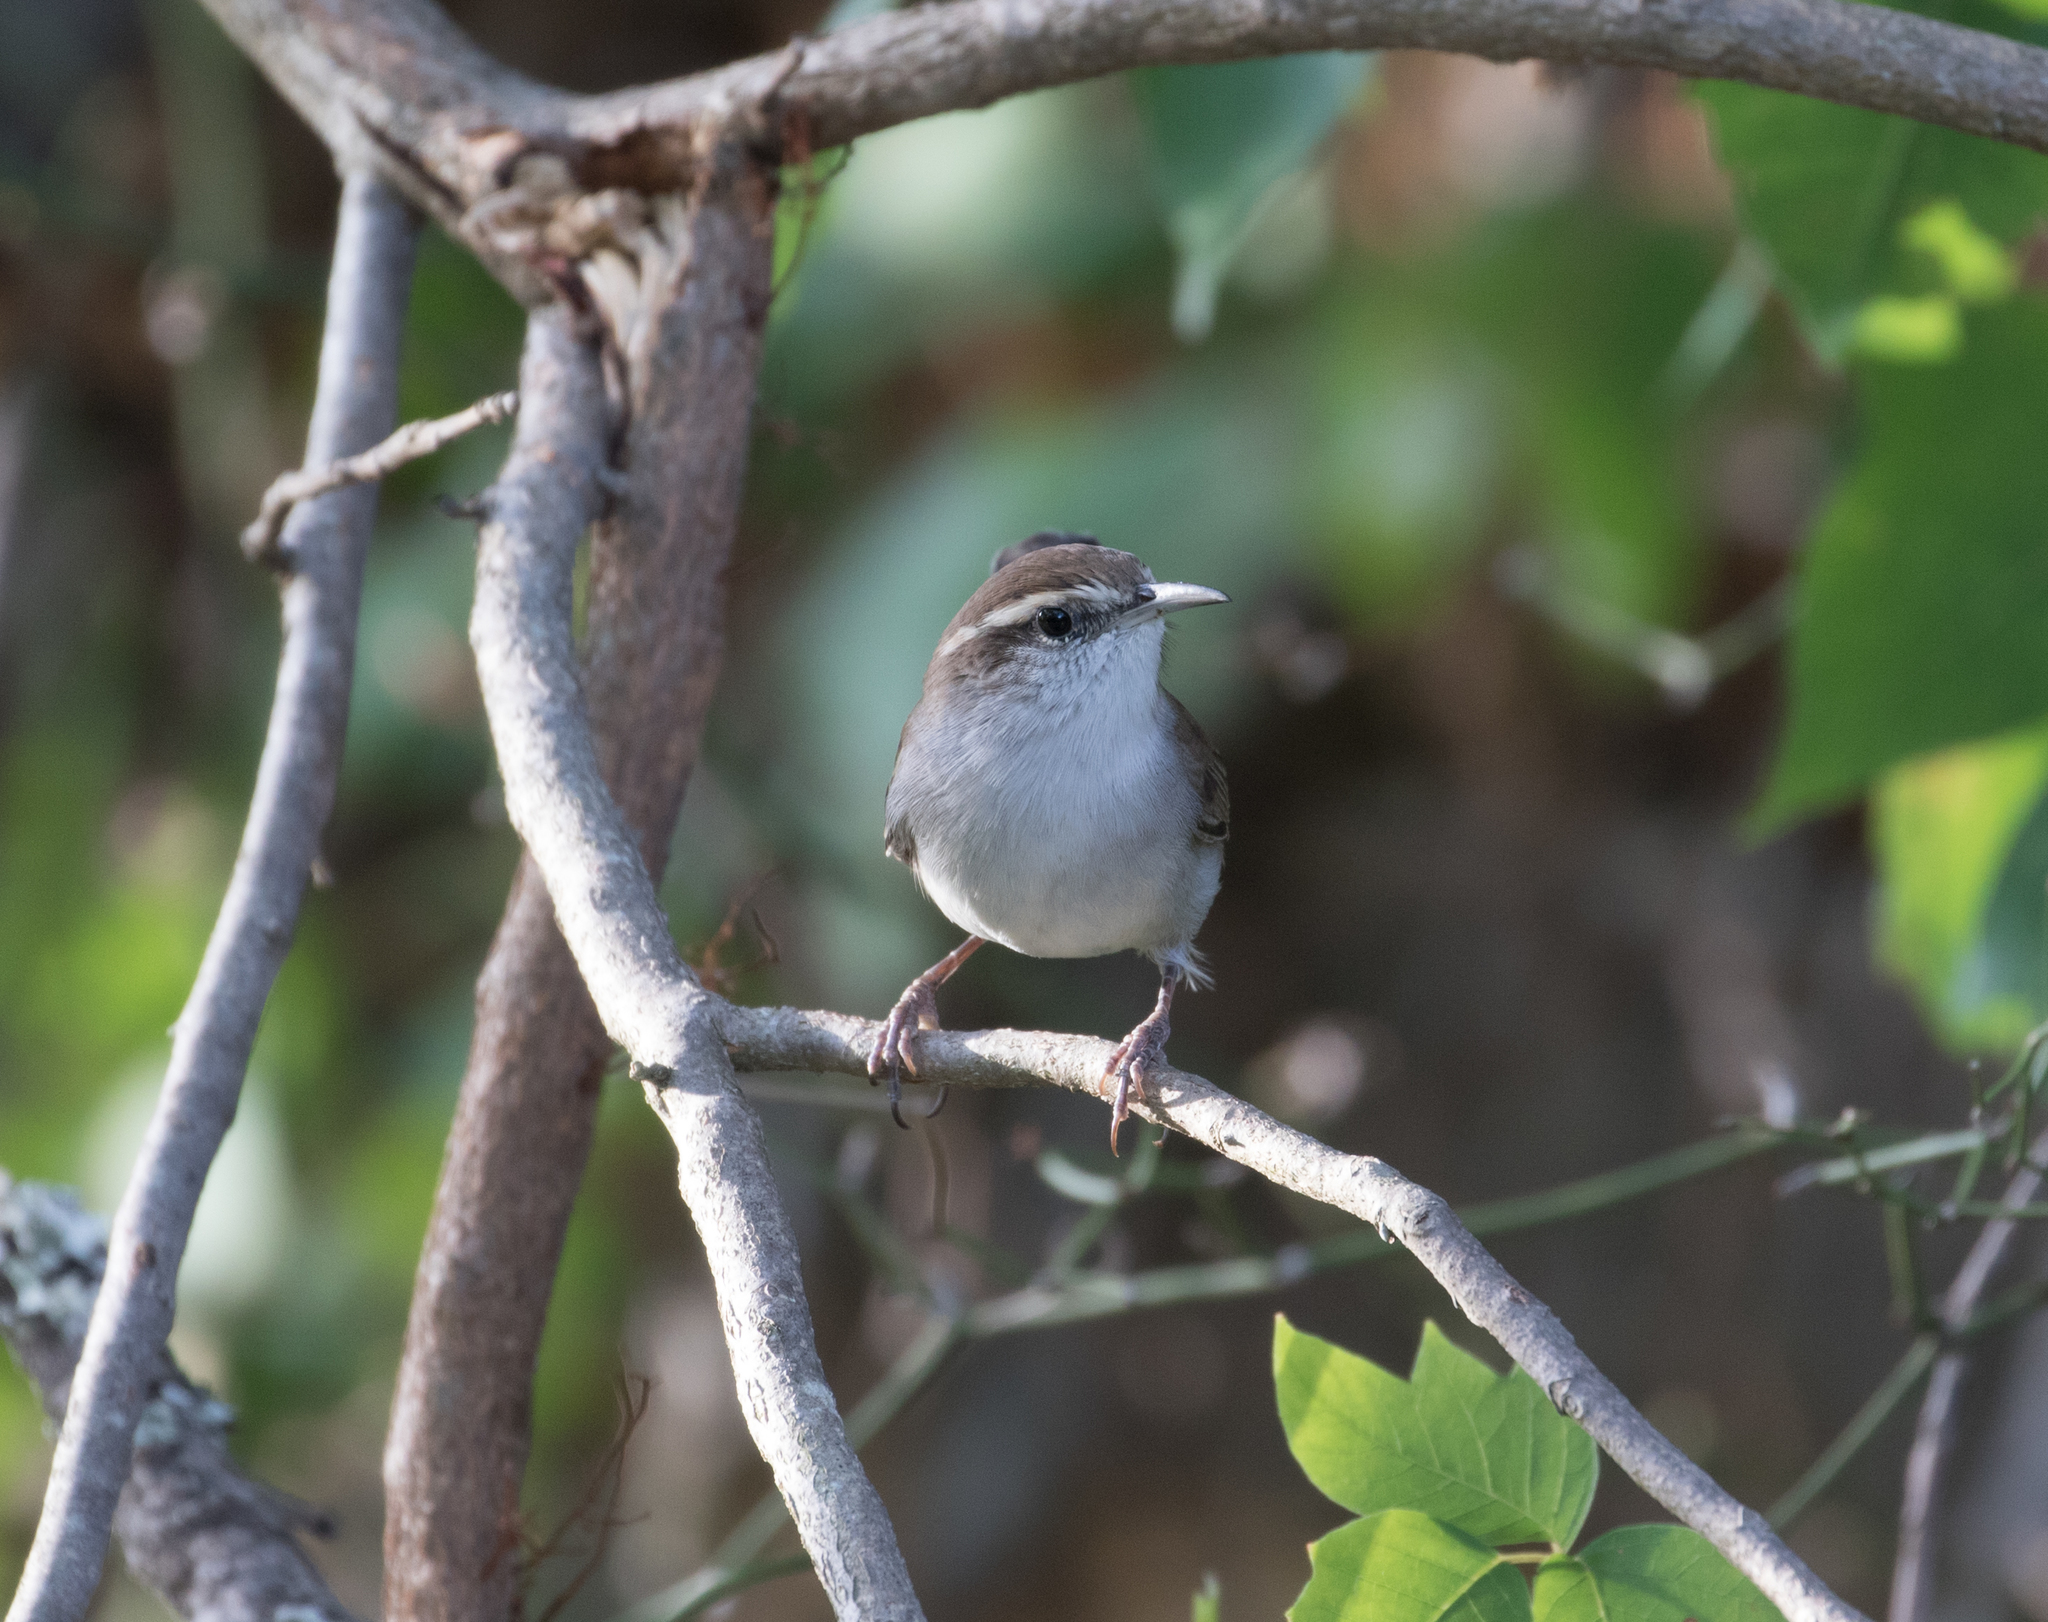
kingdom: Animalia
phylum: Chordata
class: Aves
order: Passeriformes
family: Troglodytidae
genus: Thryomanes
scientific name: Thryomanes bewickii
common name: Bewick's wren
